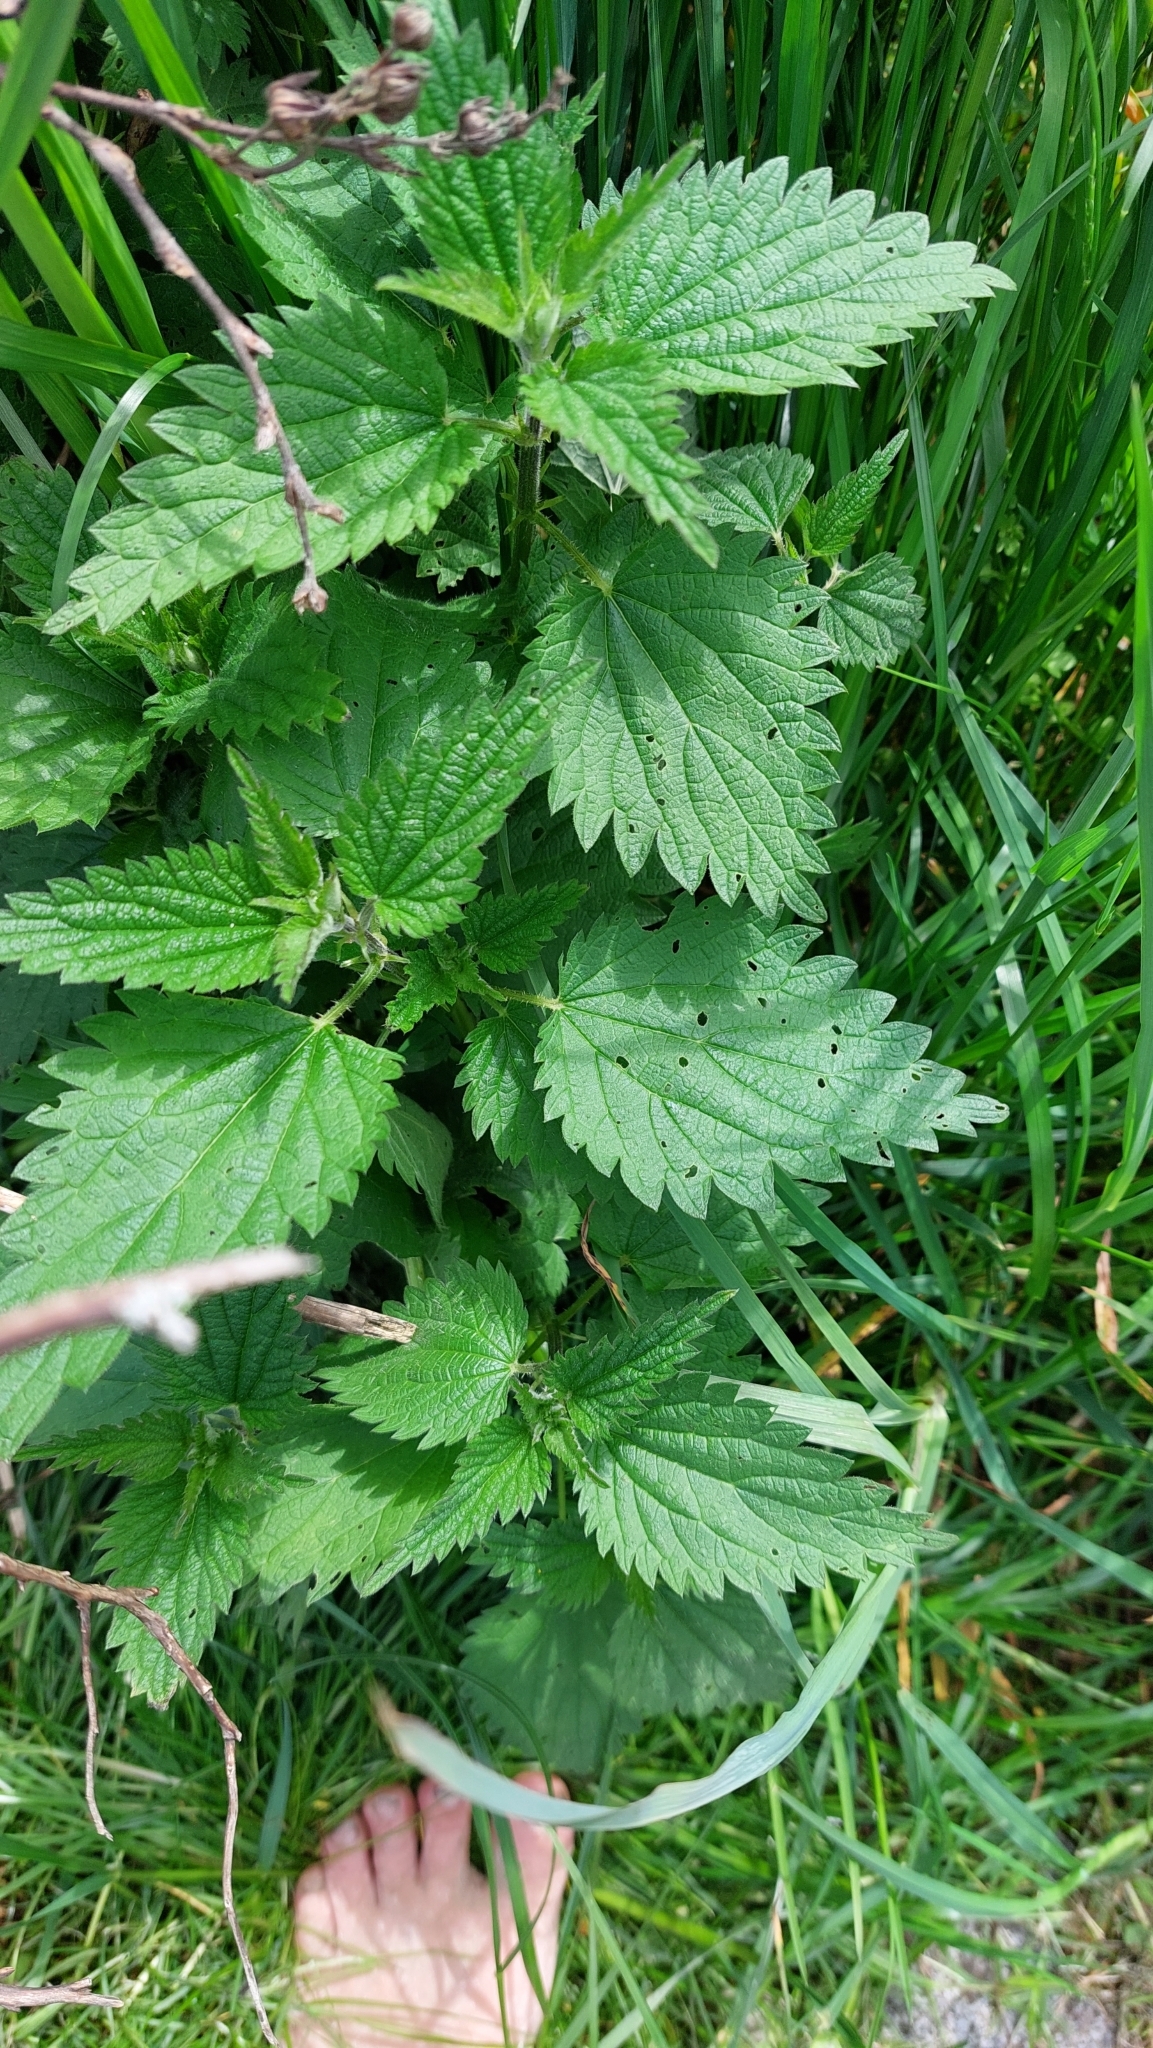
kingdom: Plantae
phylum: Tracheophyta
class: Magnoliopsida
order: Rosales
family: Urticaceae
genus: Urtica
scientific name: Urtica dioica
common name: Common nettle
